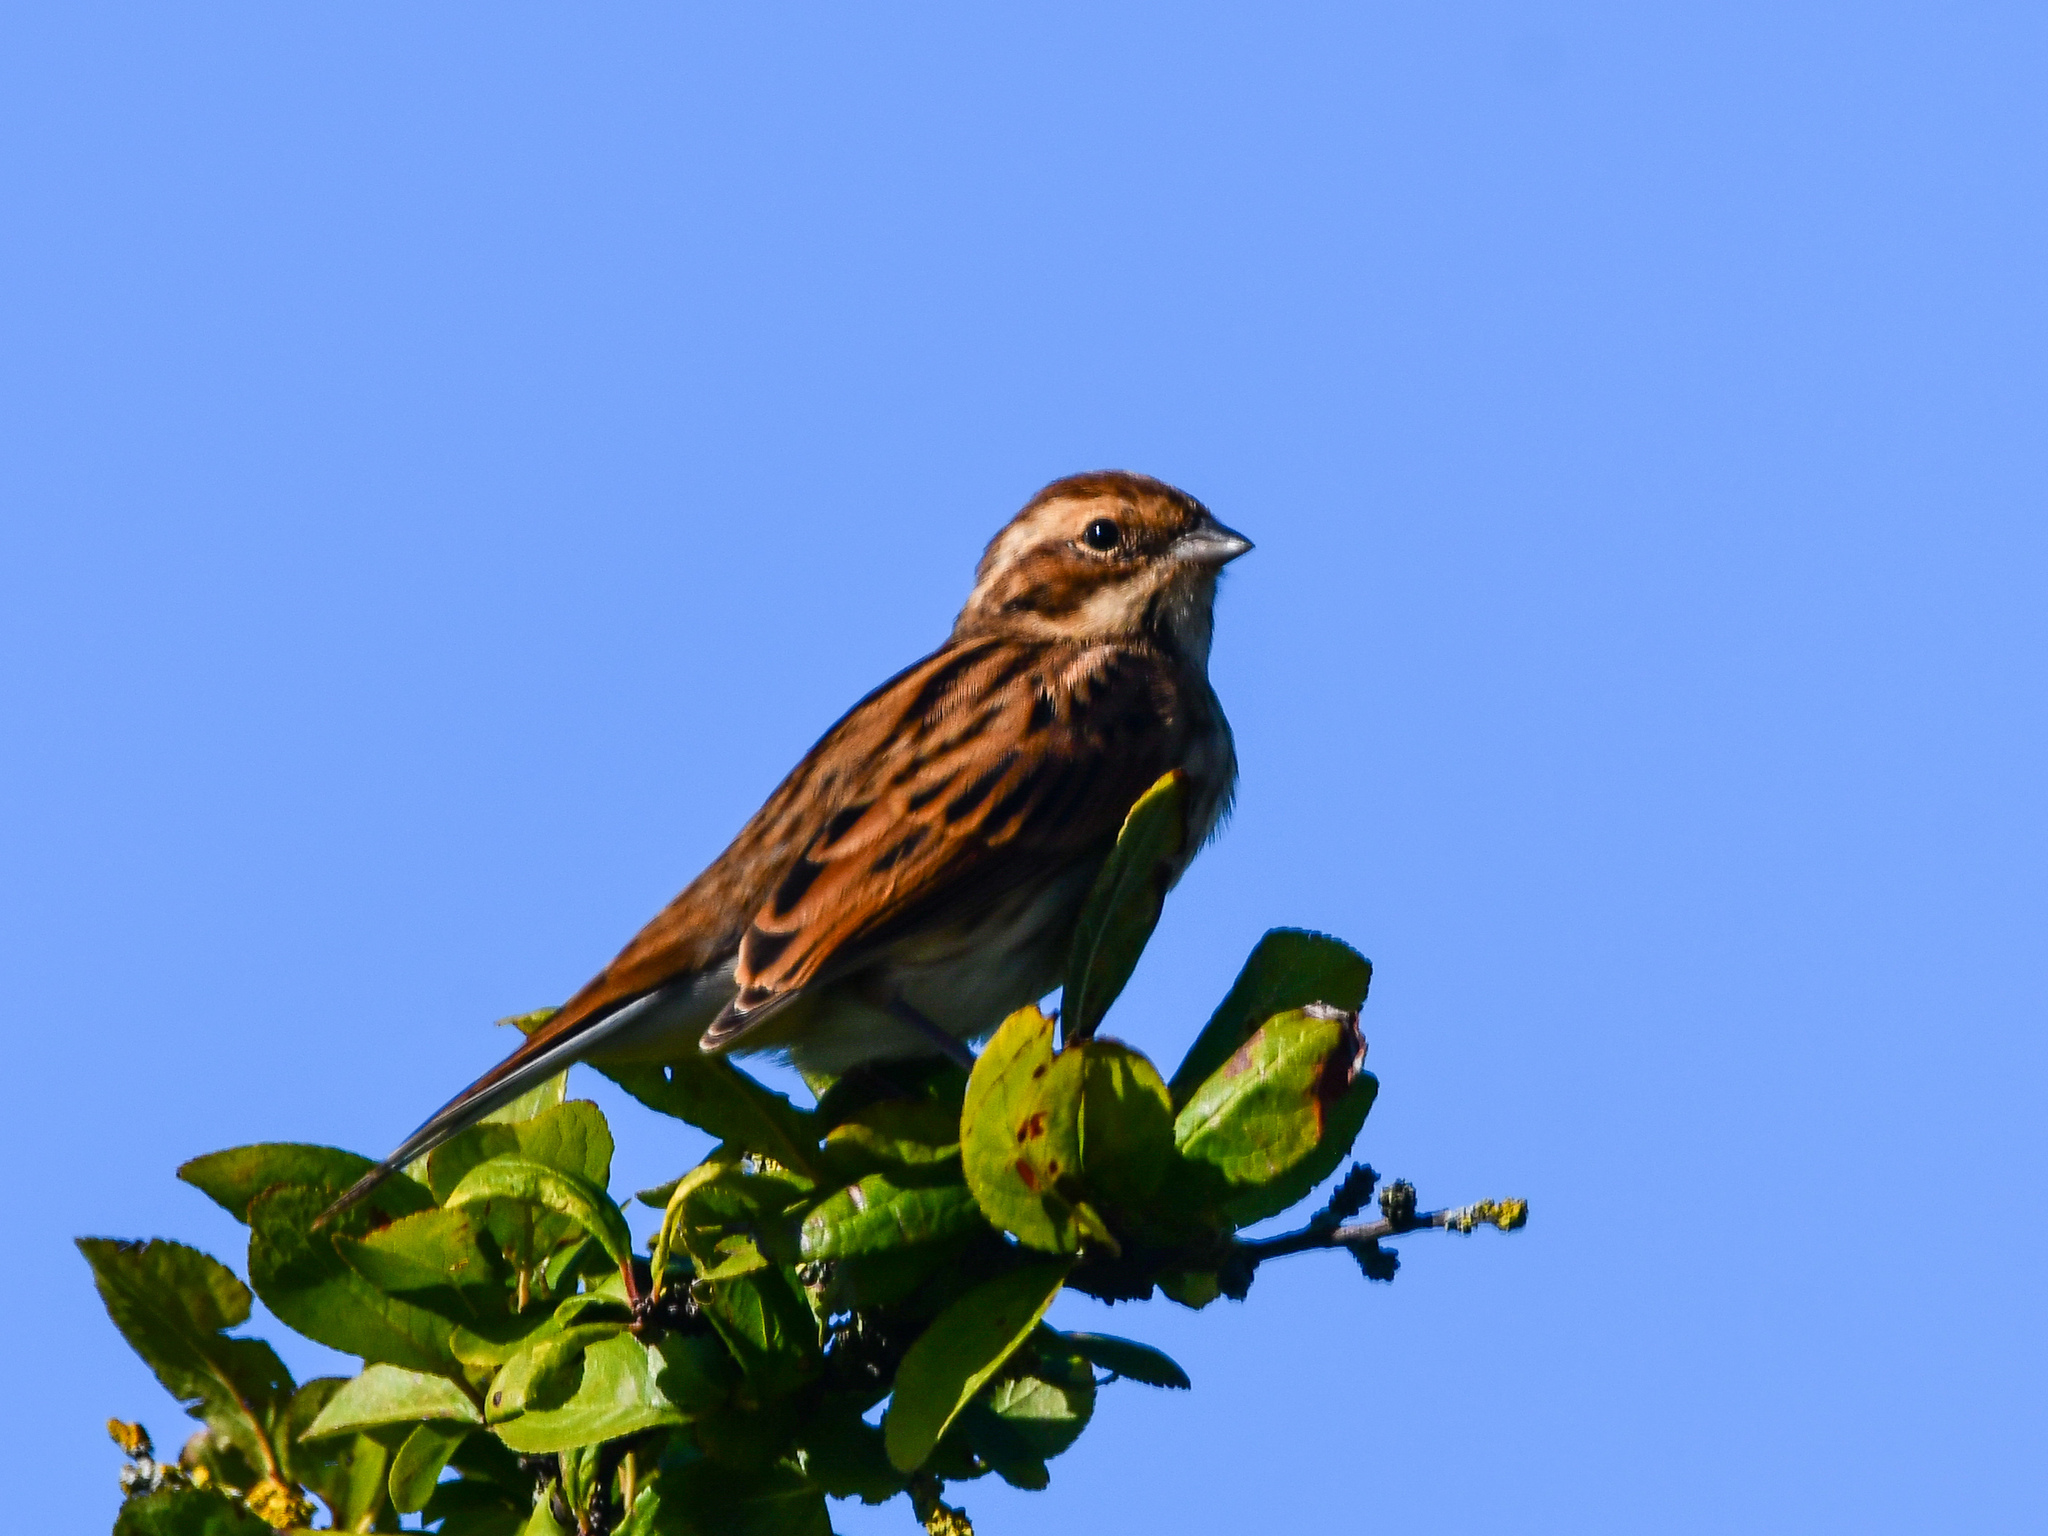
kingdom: Animalia
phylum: Chordata
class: Aves
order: Passeriformes
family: Emberizidae
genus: Emberiza
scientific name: Emberiza schoeniclus
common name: Reed bunting
